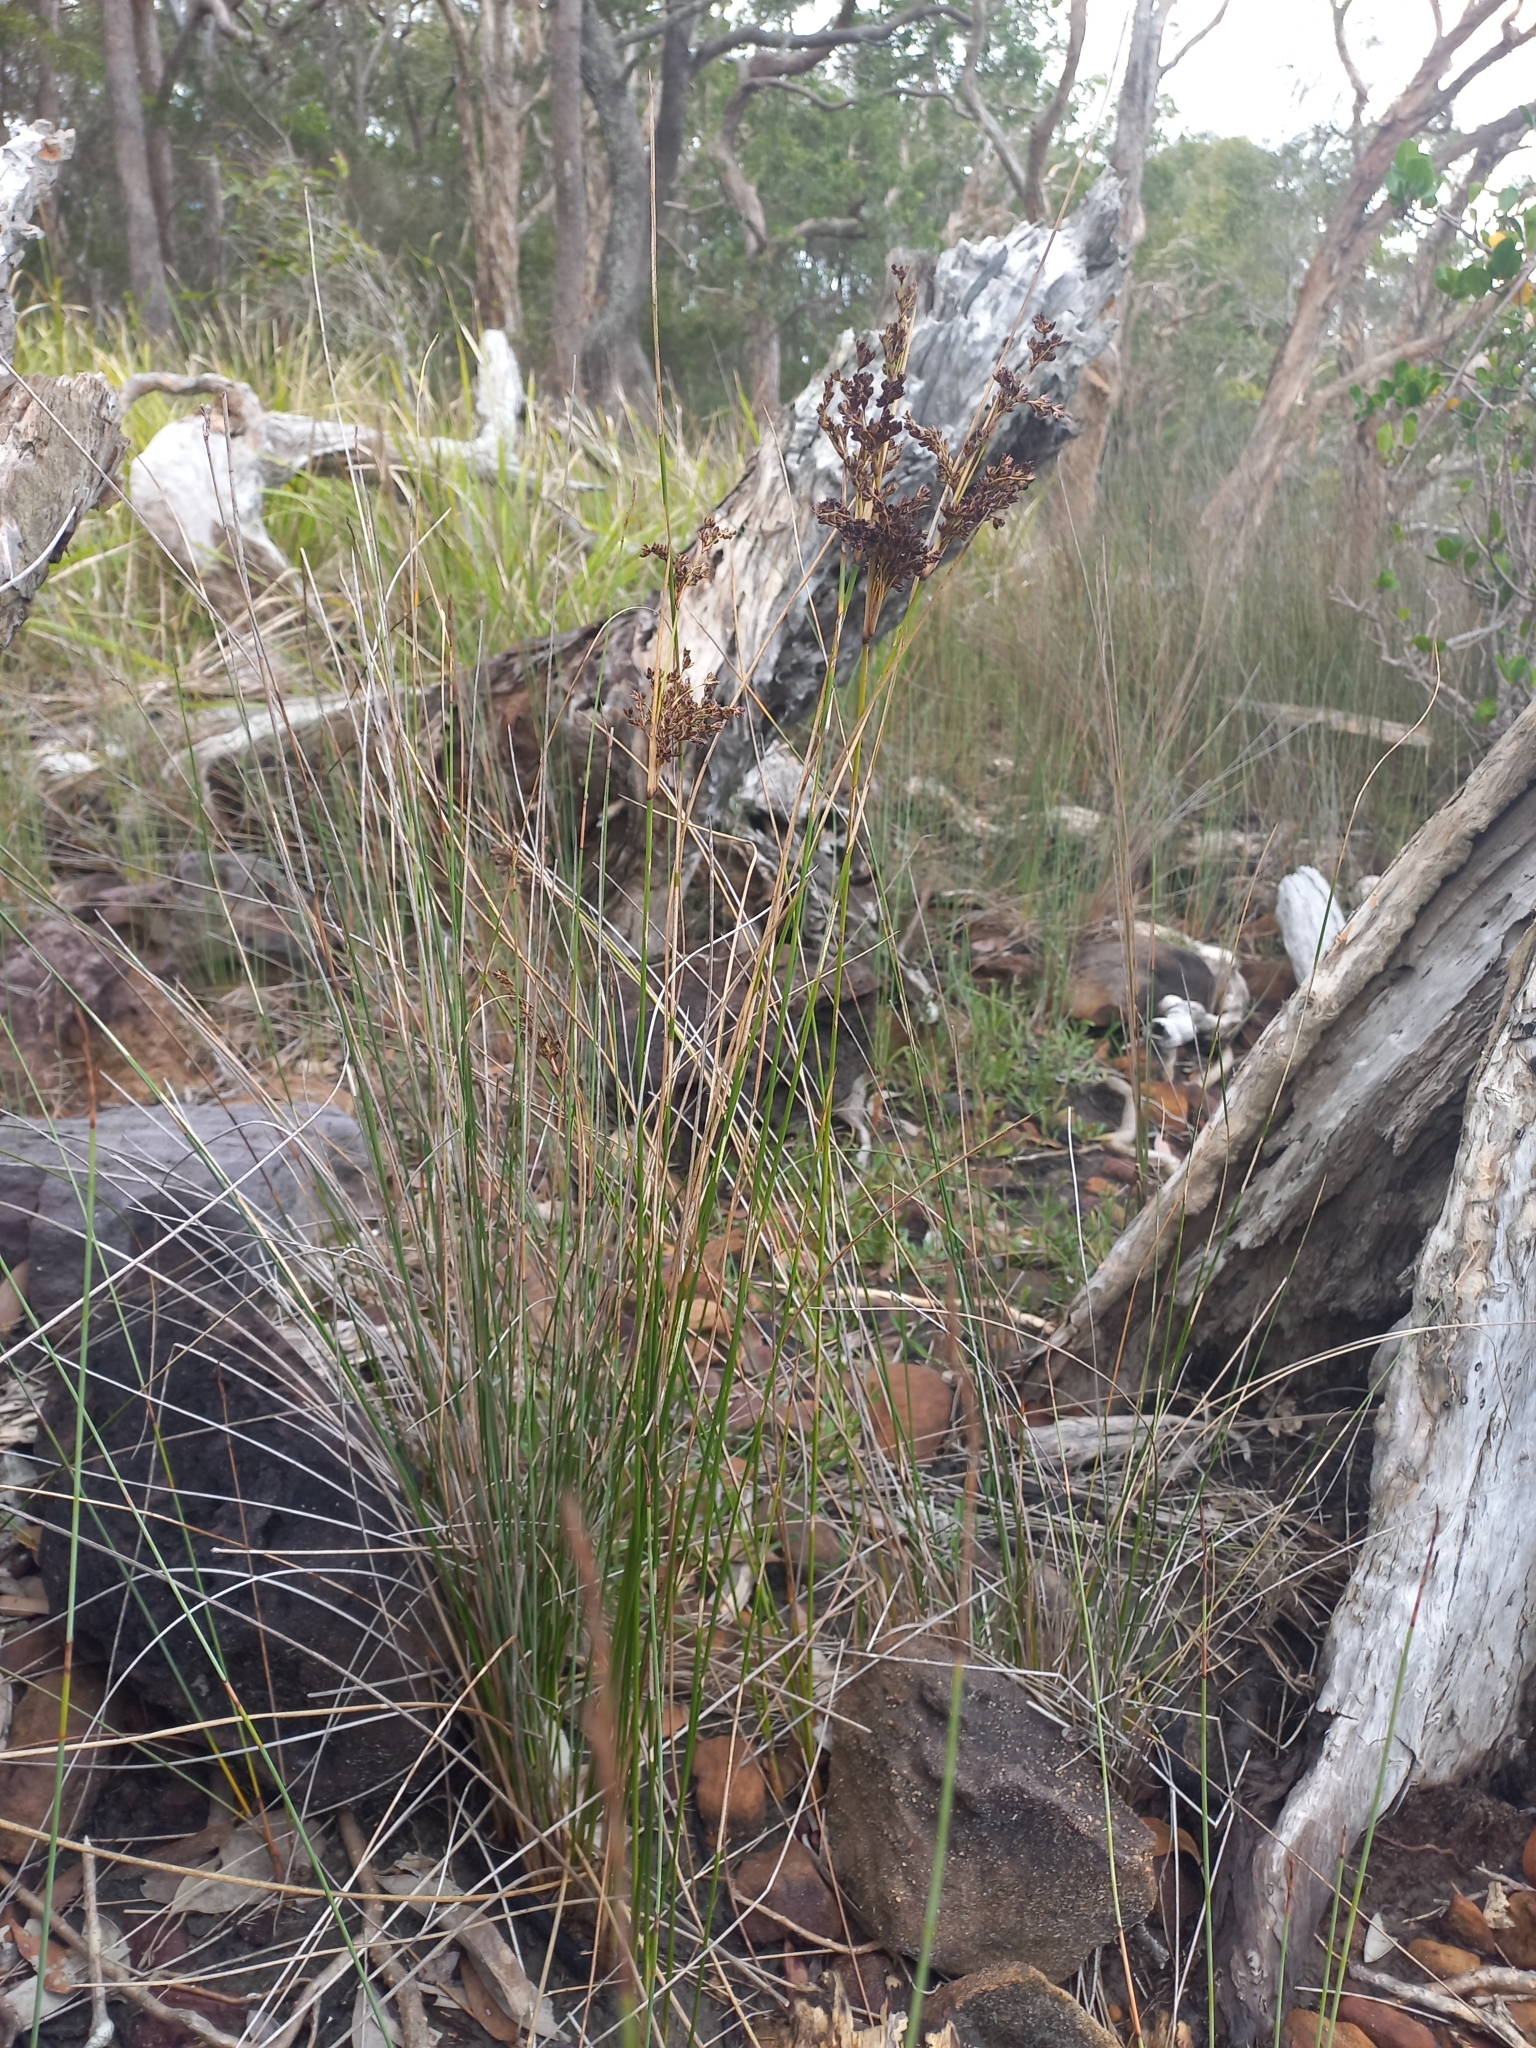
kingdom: Plantae
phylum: Tracheophyta
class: Liliopsida
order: Poales
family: Juncaceae
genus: Juncus
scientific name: Juncus kraussii
